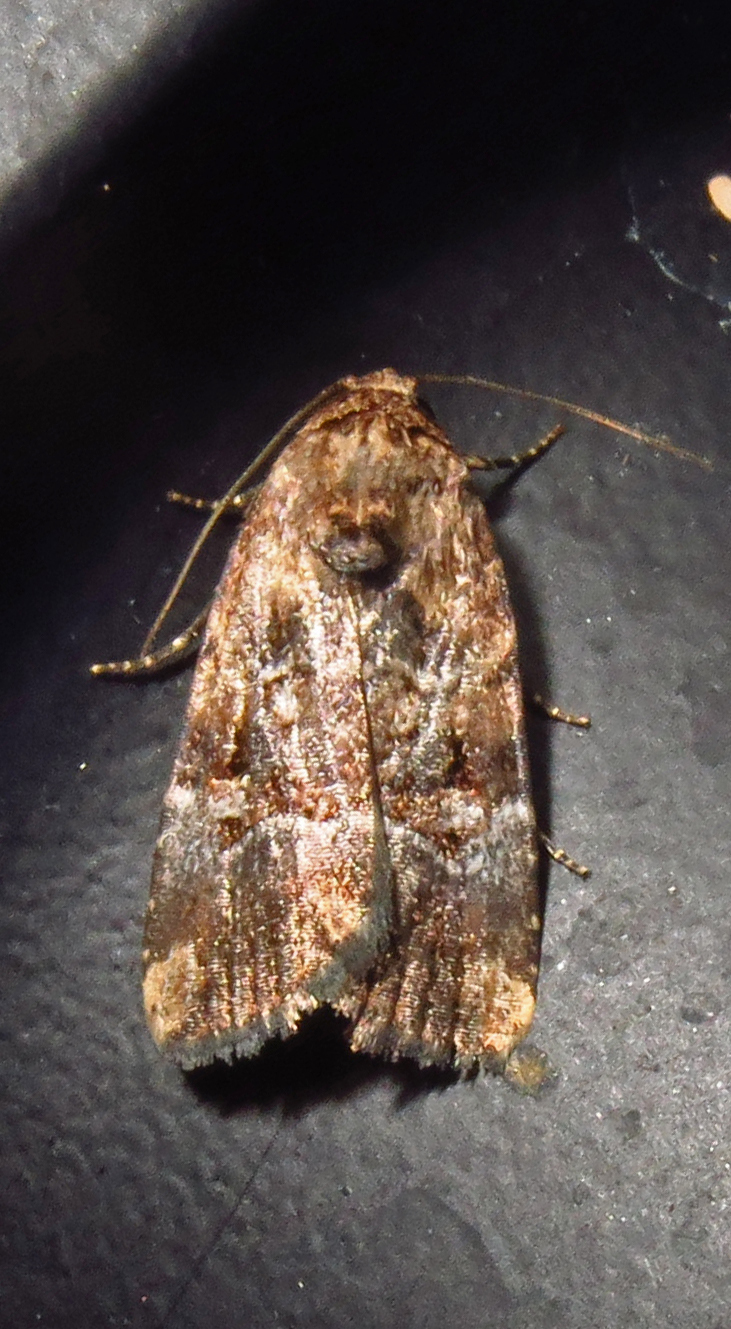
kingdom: Animalia
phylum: Arthropoda
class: Insecta
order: Lepidoptera
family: Noctuidae
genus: Elaphria
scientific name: Elaphria chalcedonia
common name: Chalcedony midget
